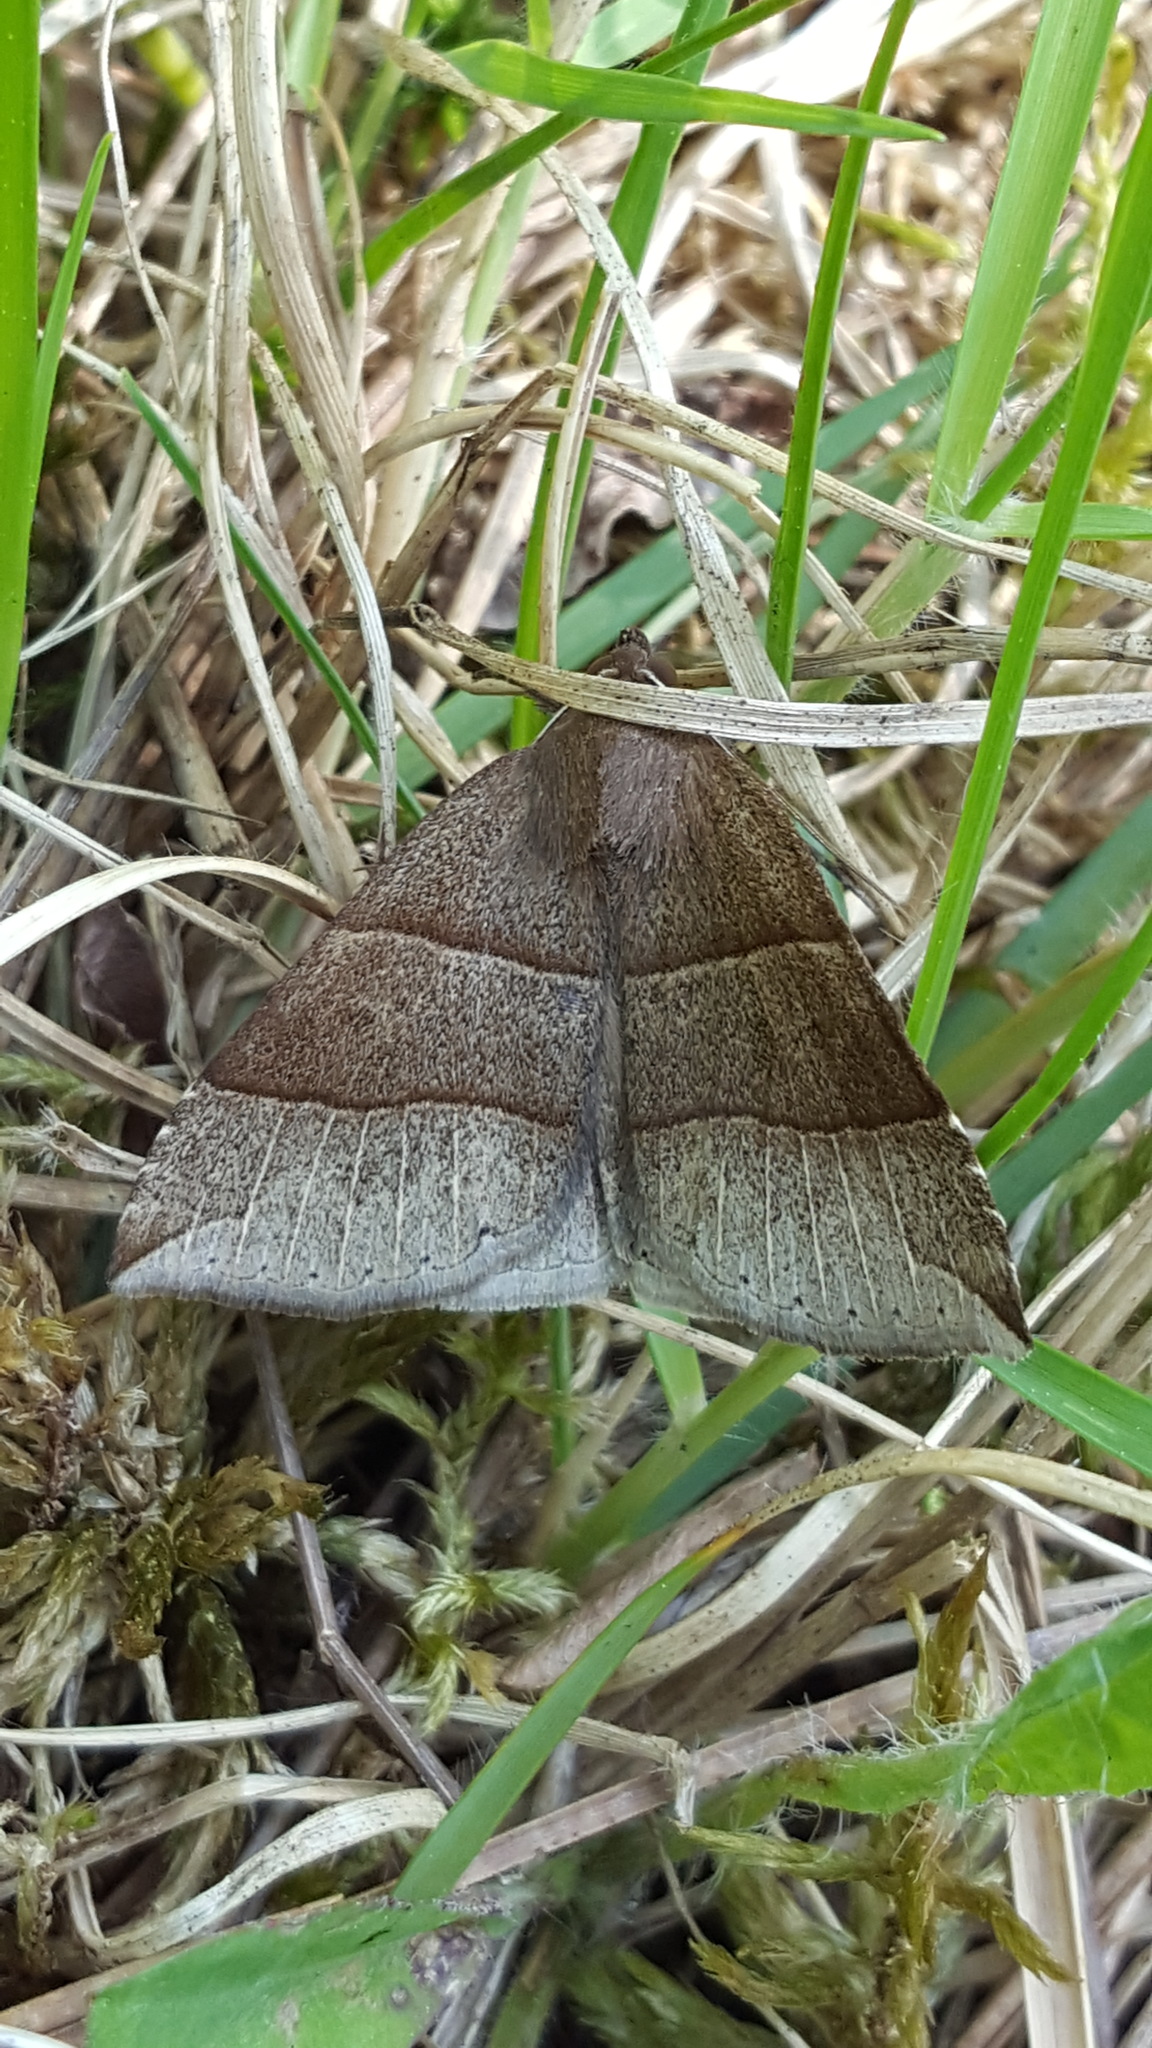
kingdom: Animalia
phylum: Arthropoda
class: Insecta
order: Lepidoptera
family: Erebidae
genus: Parallelia
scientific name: Parallelia bistriaris
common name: Maple looper moth
